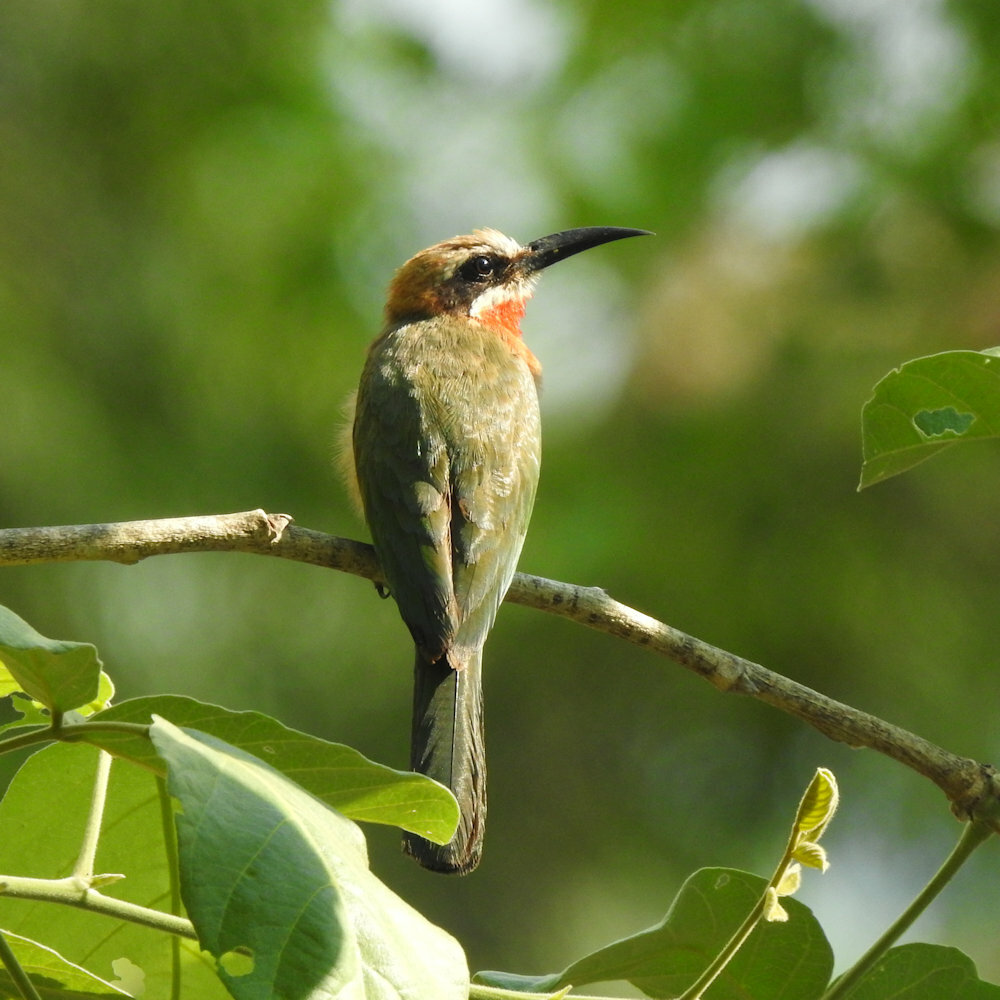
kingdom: Animalia
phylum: Chordata
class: Aves
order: Coraciiformes
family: Meropidae
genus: Merops
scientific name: Merops bullockoides
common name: White-fronted bee-eater
